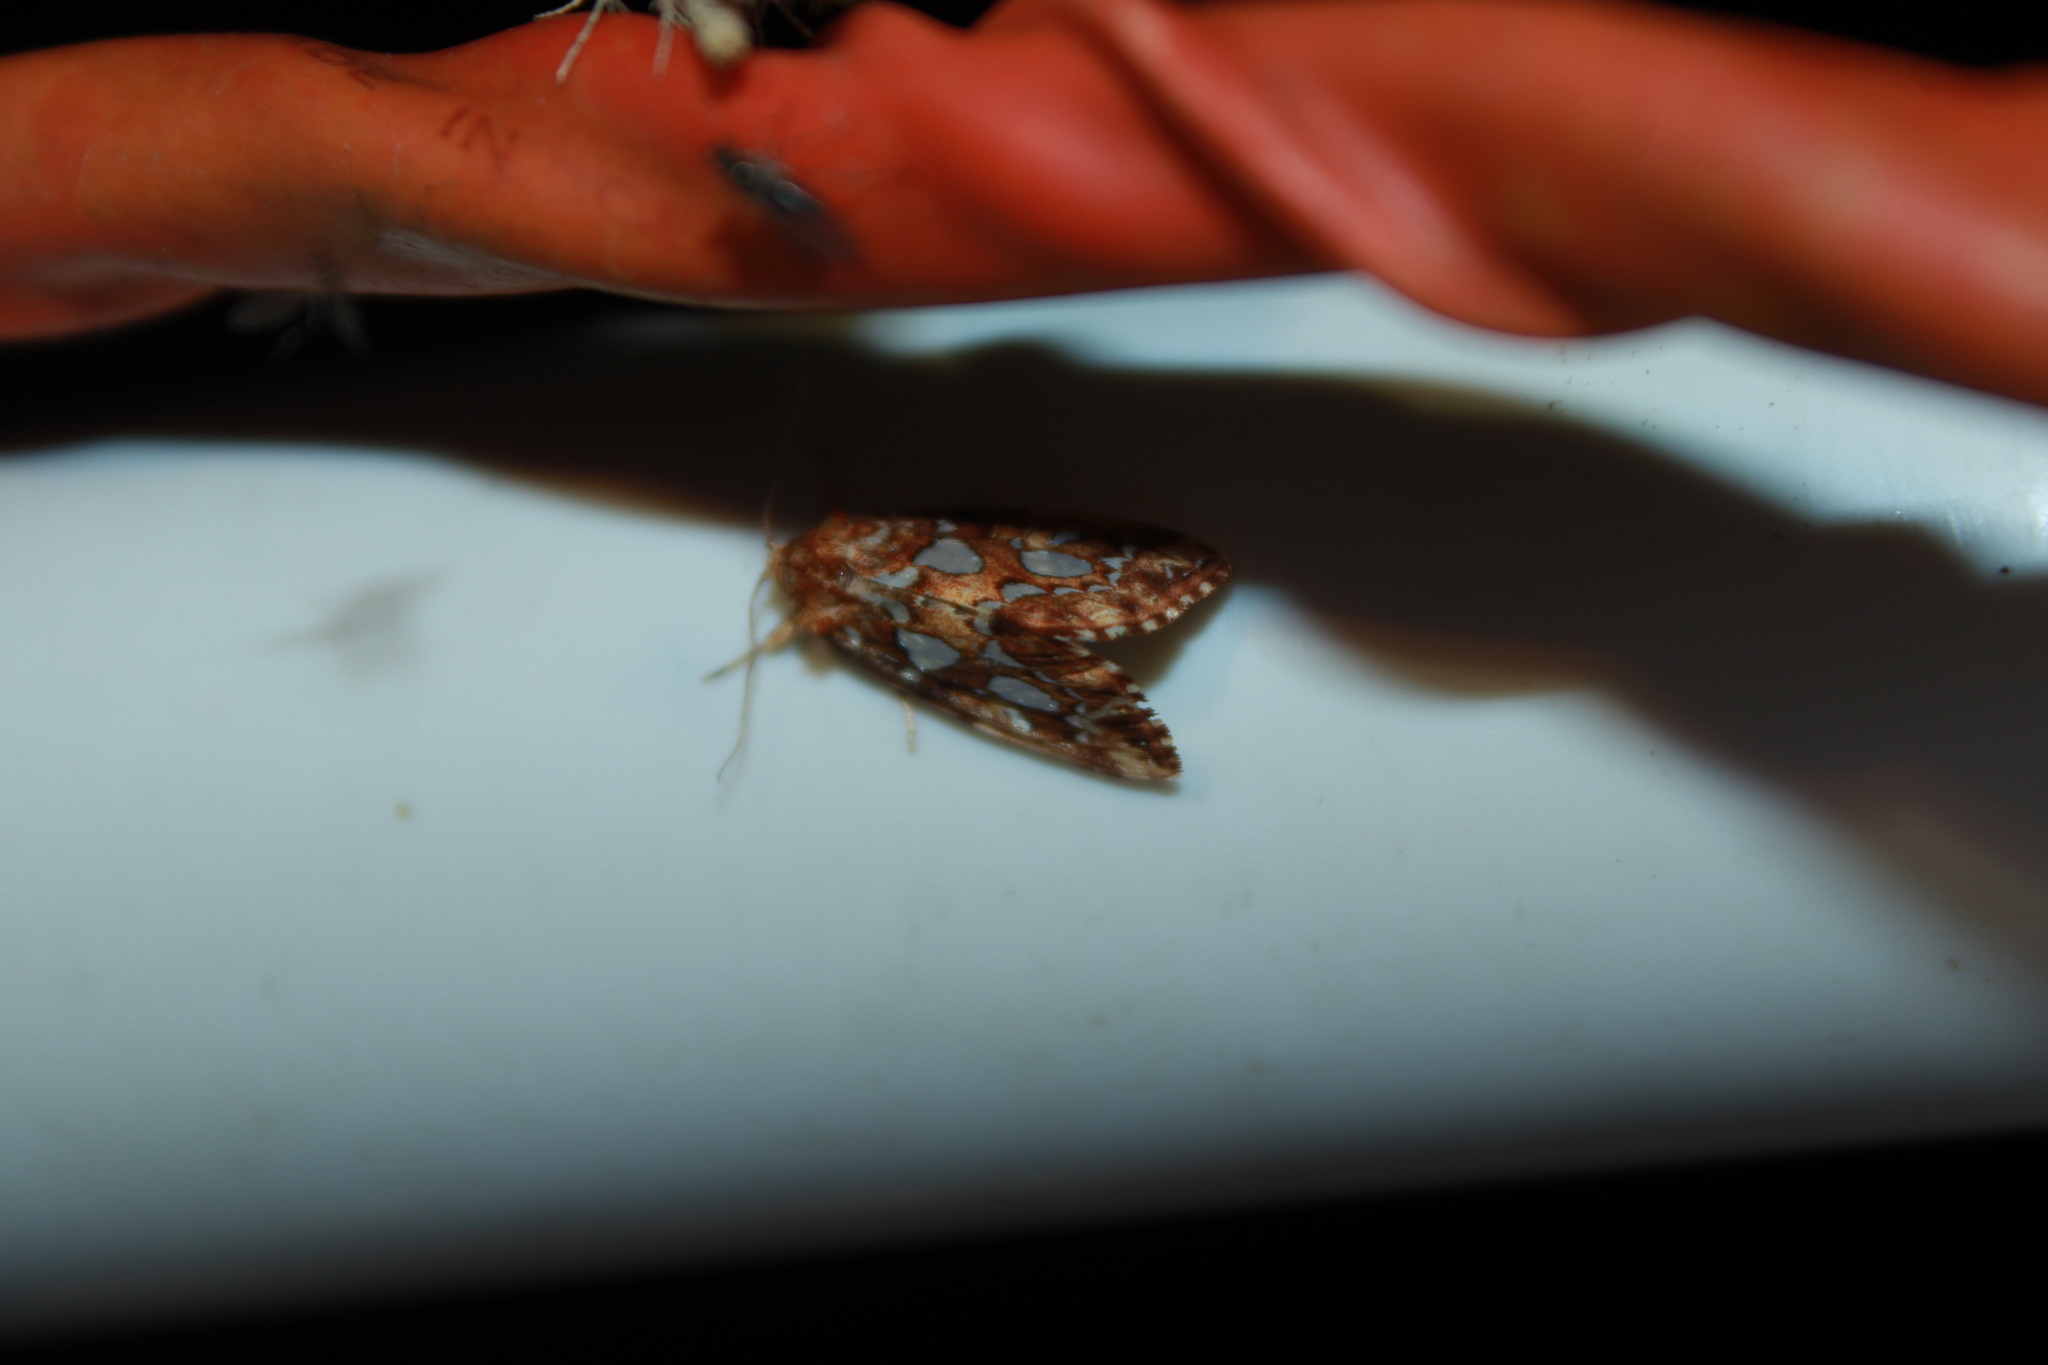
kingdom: Animalia
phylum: Arthropoda
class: Insecta
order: Lepidoptera
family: Noctuidae
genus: Callopistria
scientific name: Callopistria cordata
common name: Silver-spotted fern moth
